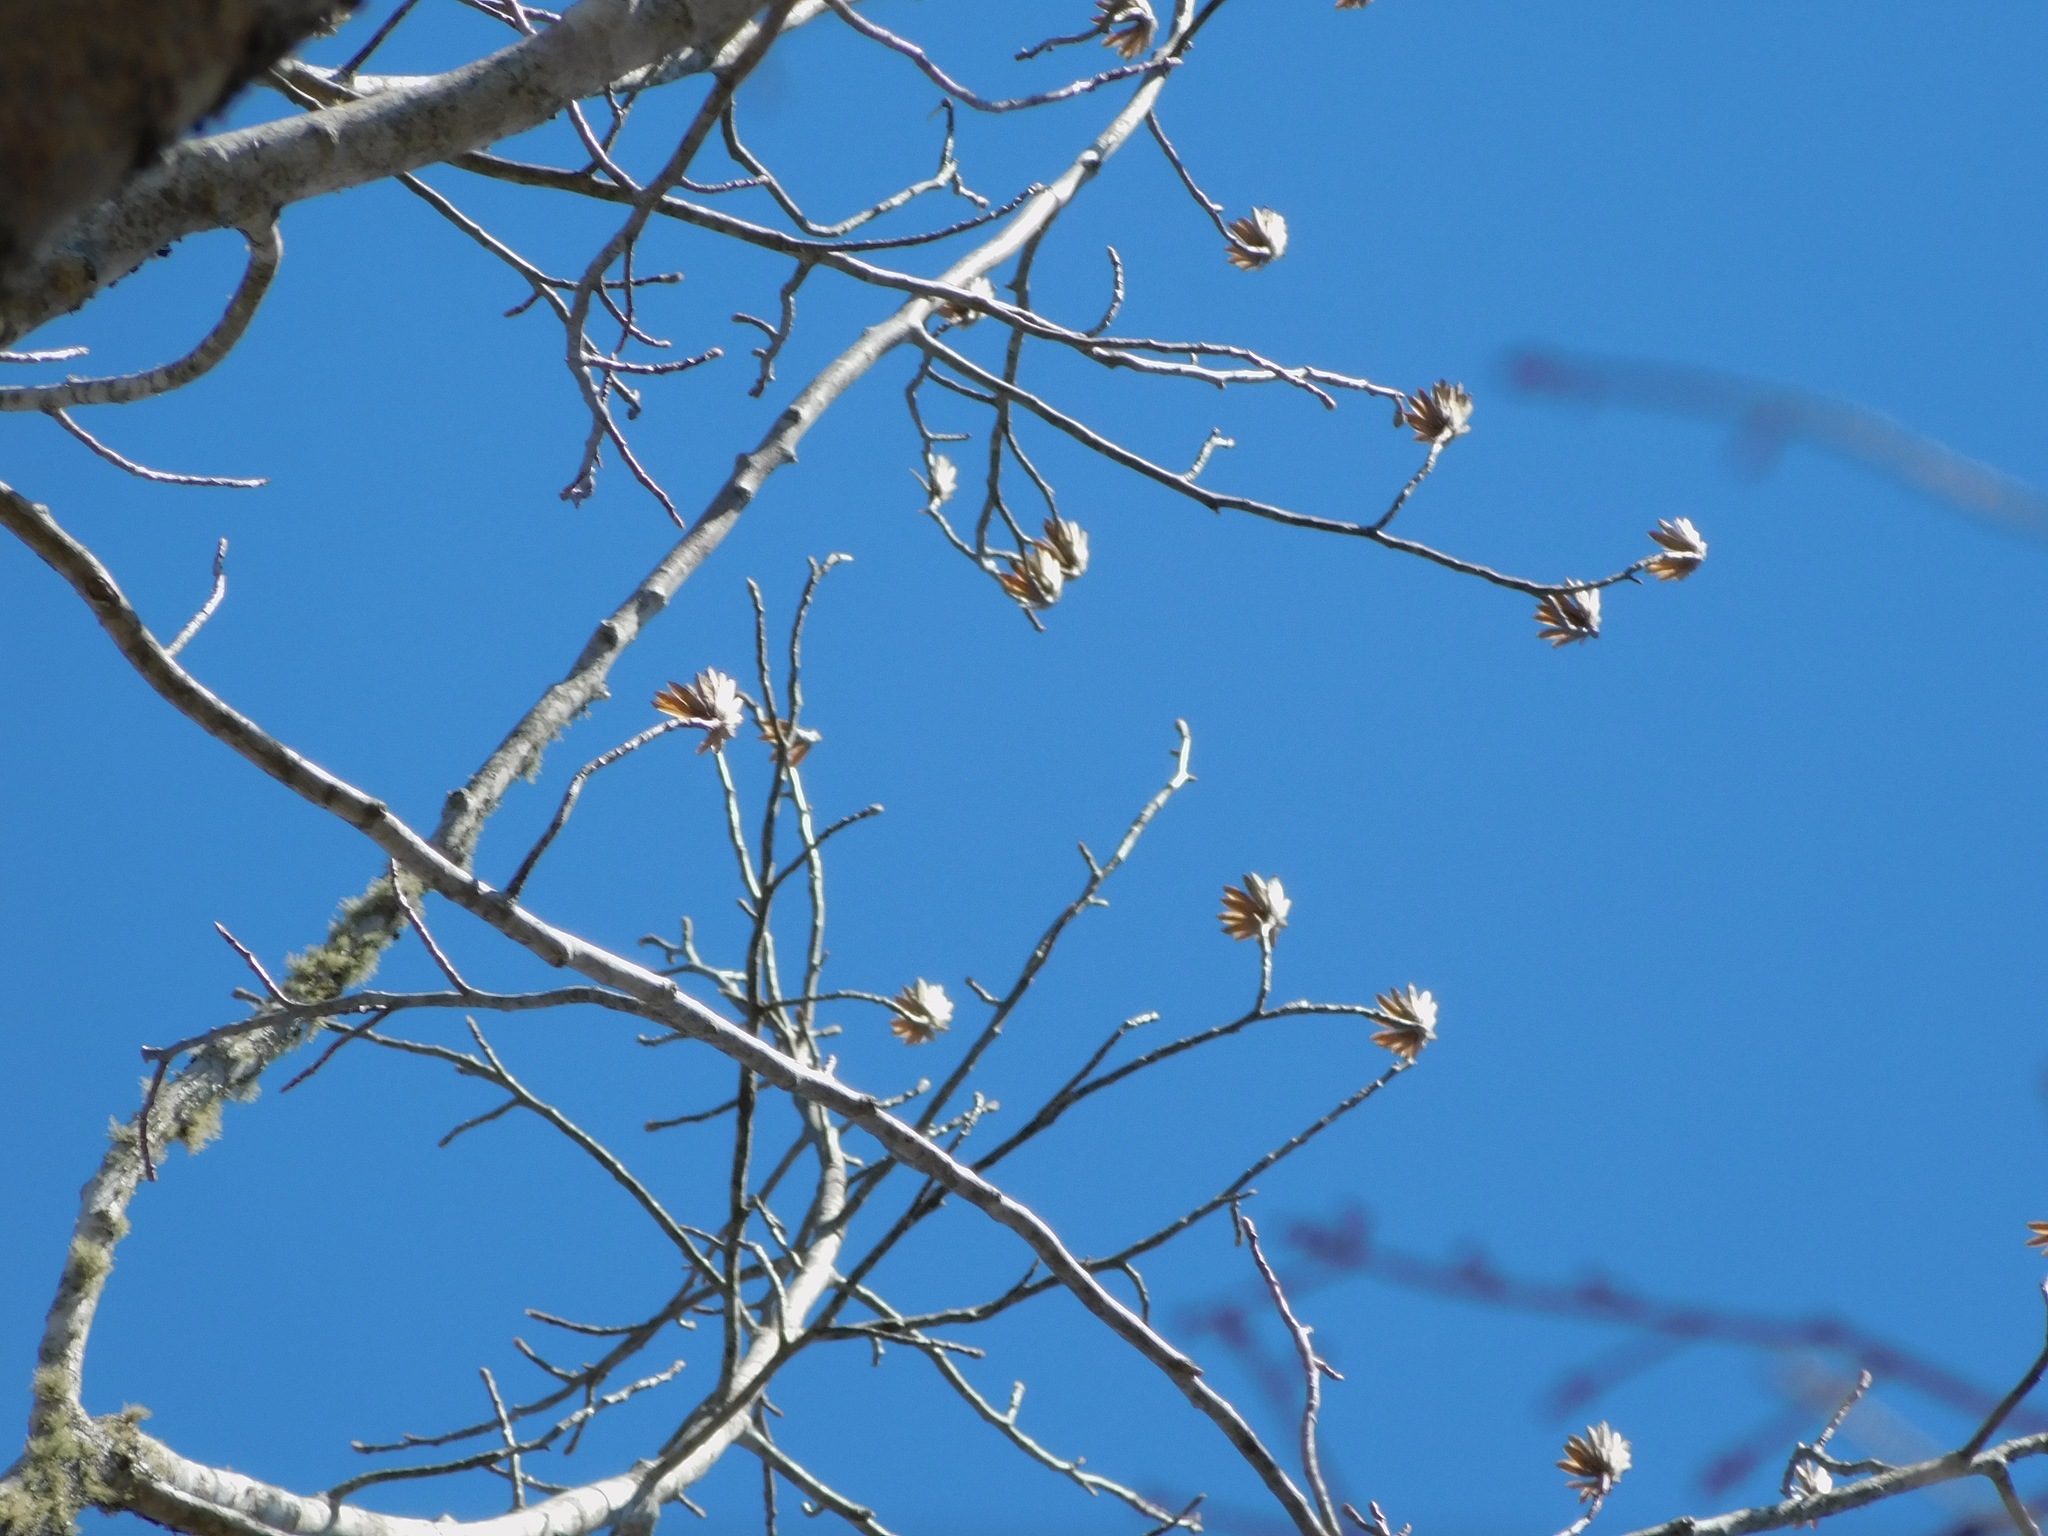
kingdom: Plantae
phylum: Tracheophyta
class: Magnoliopsida
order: Magnoliales
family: Magnoliaceae
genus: Liriodendron
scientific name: Liriodendron tulipifera
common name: Tulip tree
